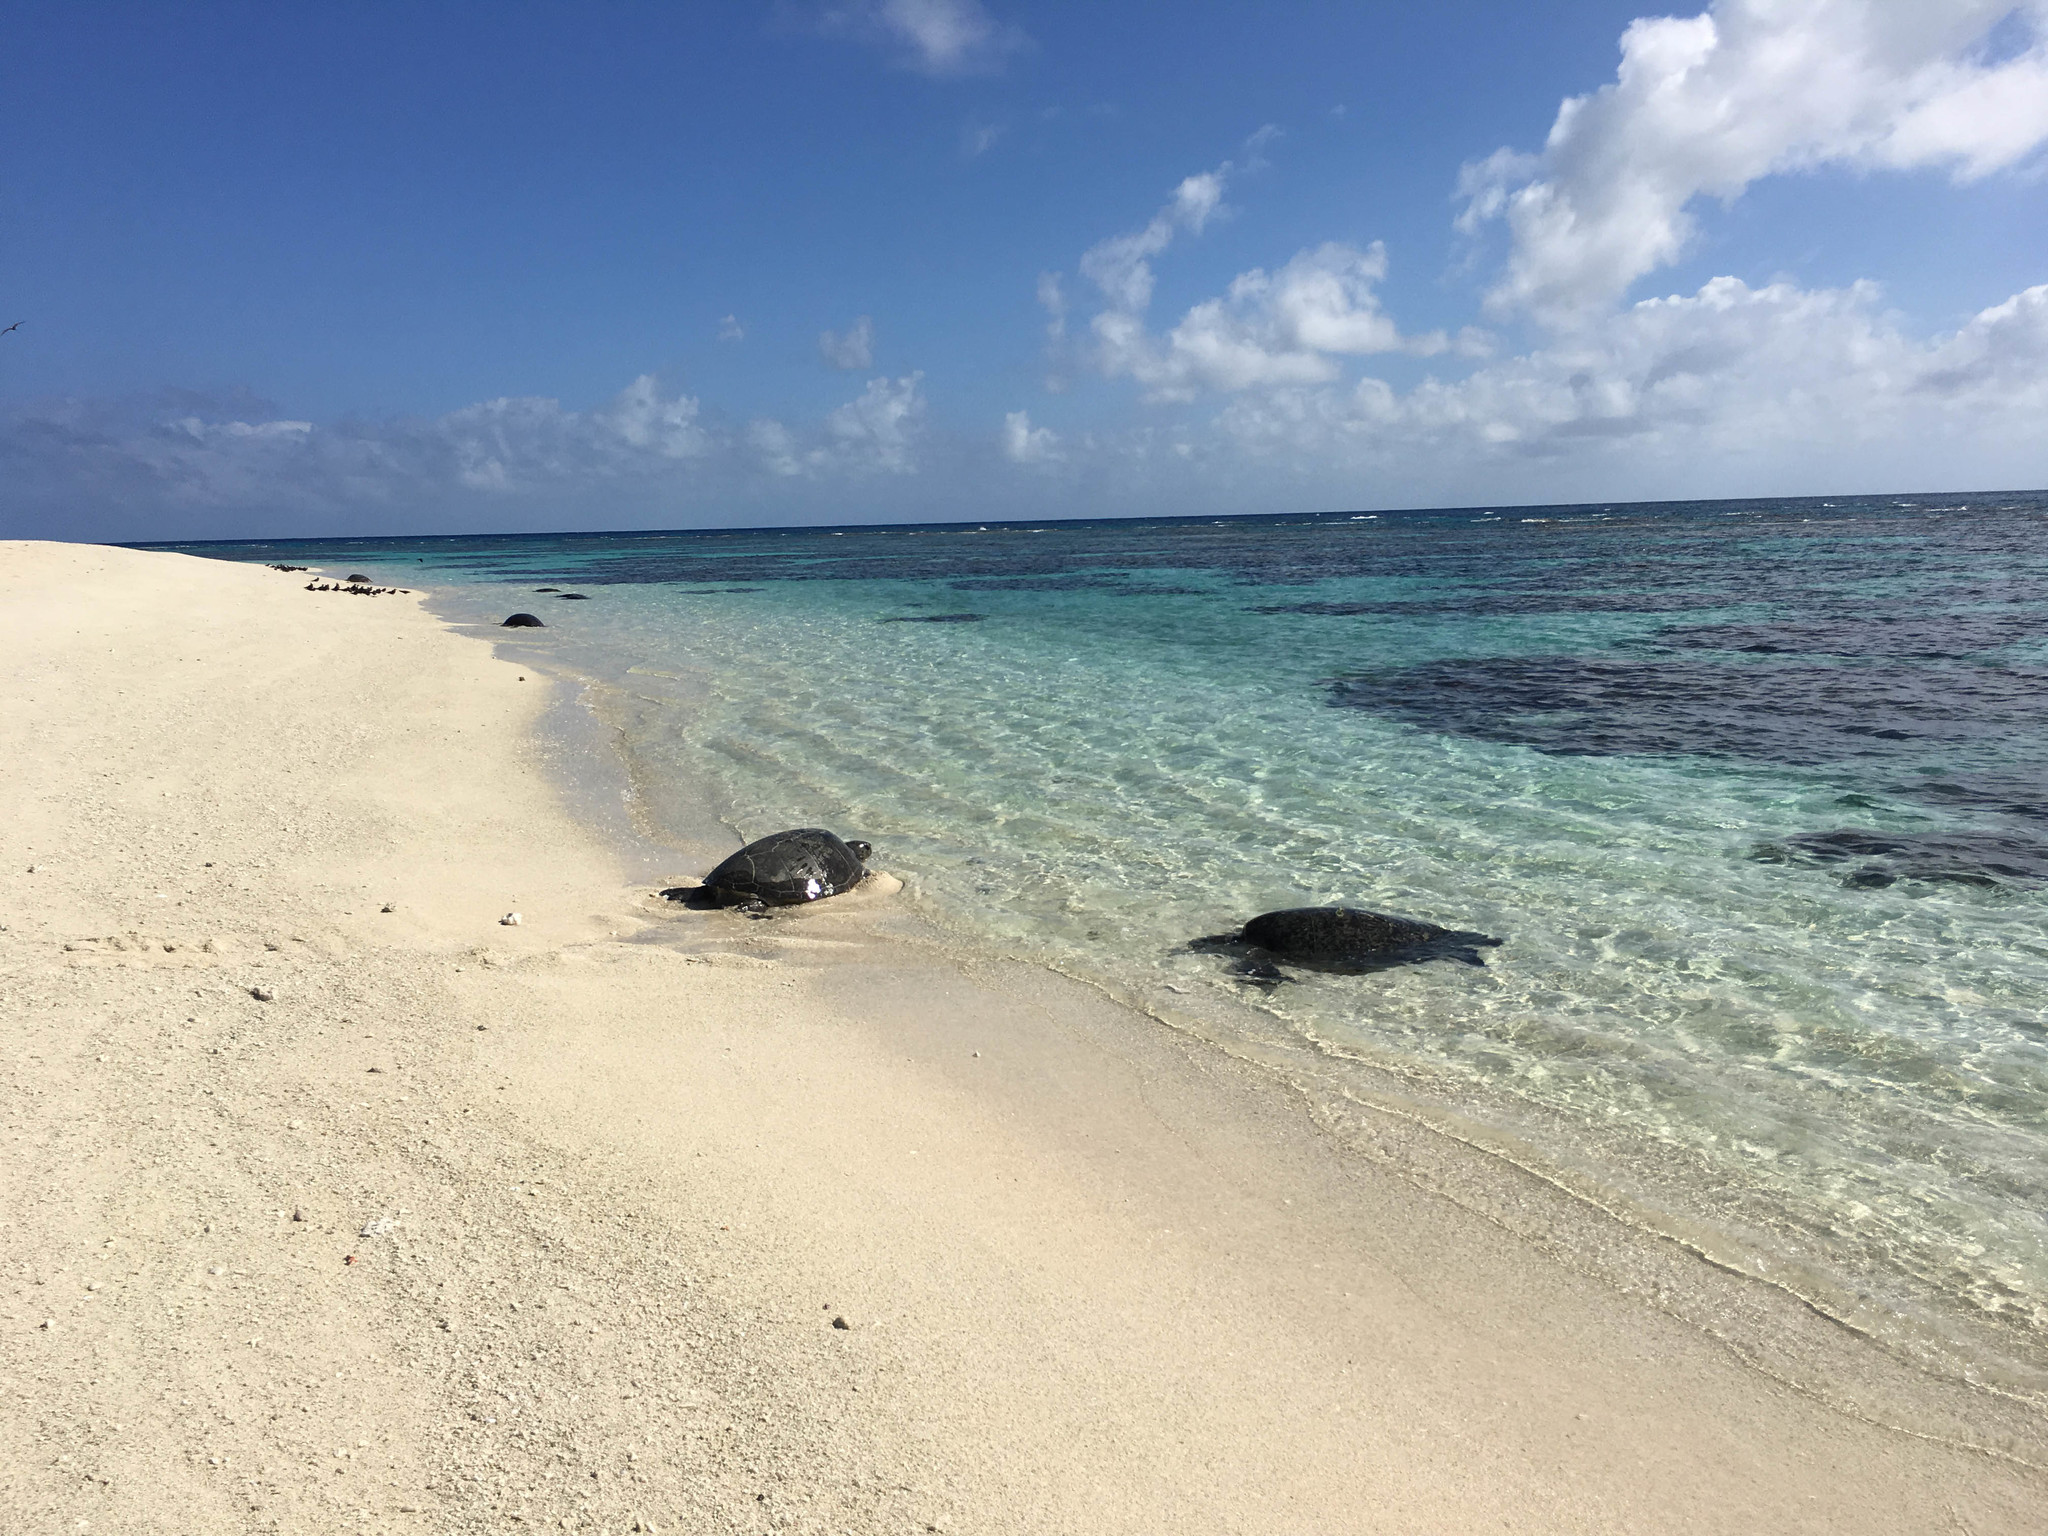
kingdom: Animalia
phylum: Chordata
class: Testudines
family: Cheloniidae
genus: Chelonia
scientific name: Chelonia mydas
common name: Green turtle
